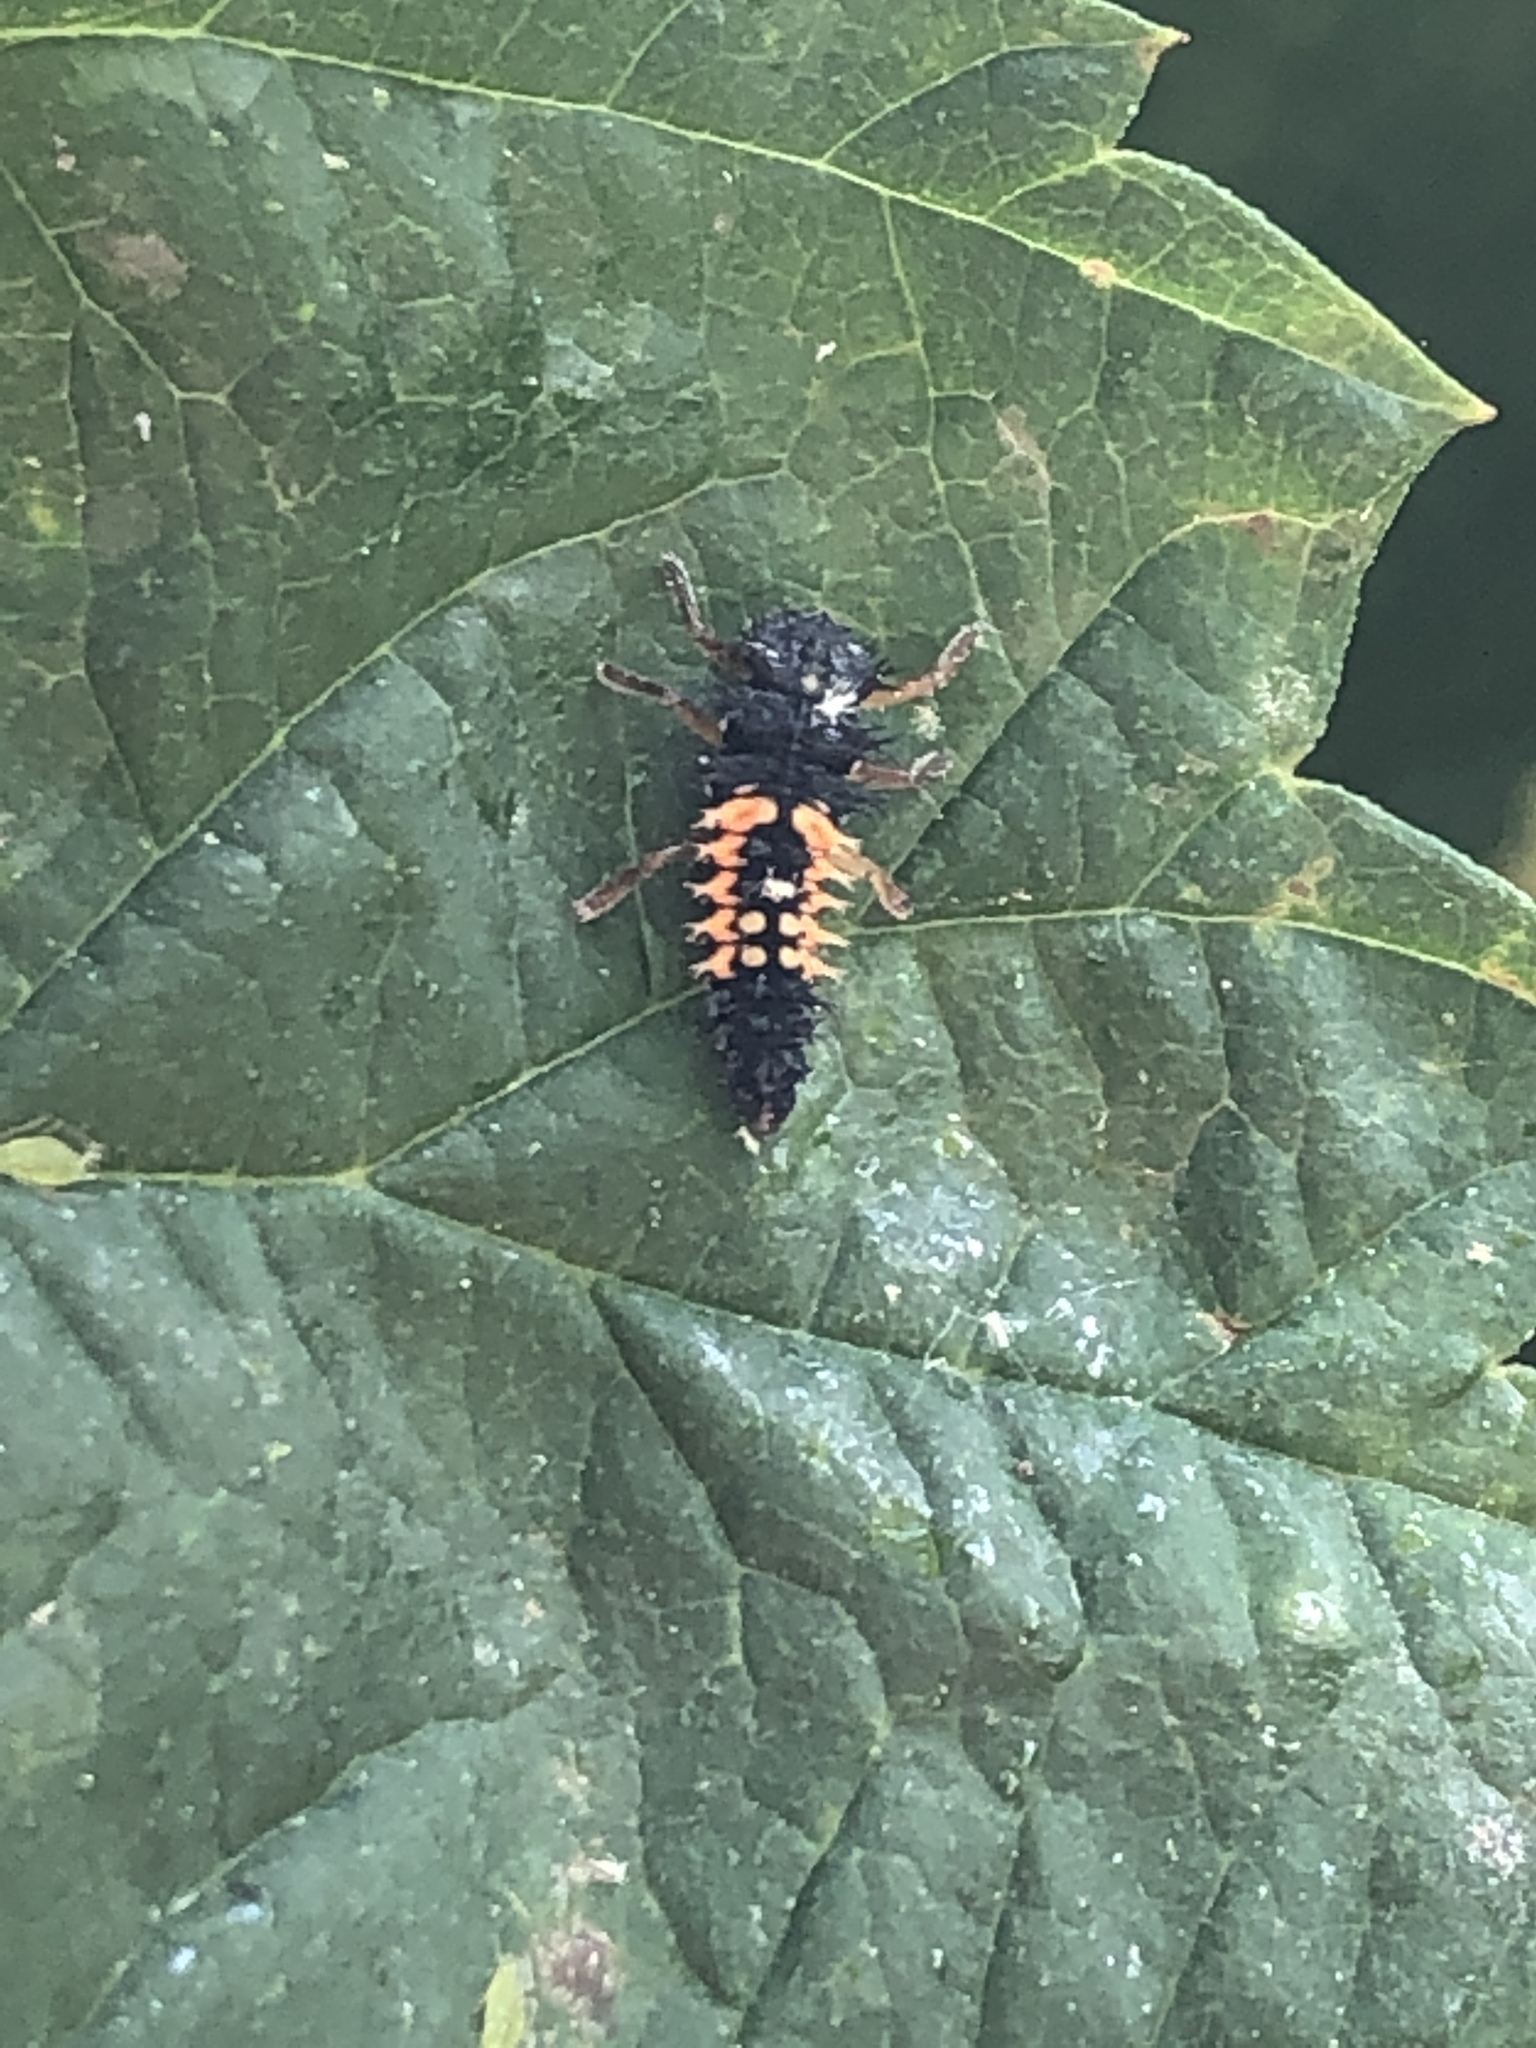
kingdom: Animalia
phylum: Arthropoda
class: Insecta
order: Coleoptera
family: Coccinellidae
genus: Harmonia
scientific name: Harmonia axyridis
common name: Harlequin ladybird
